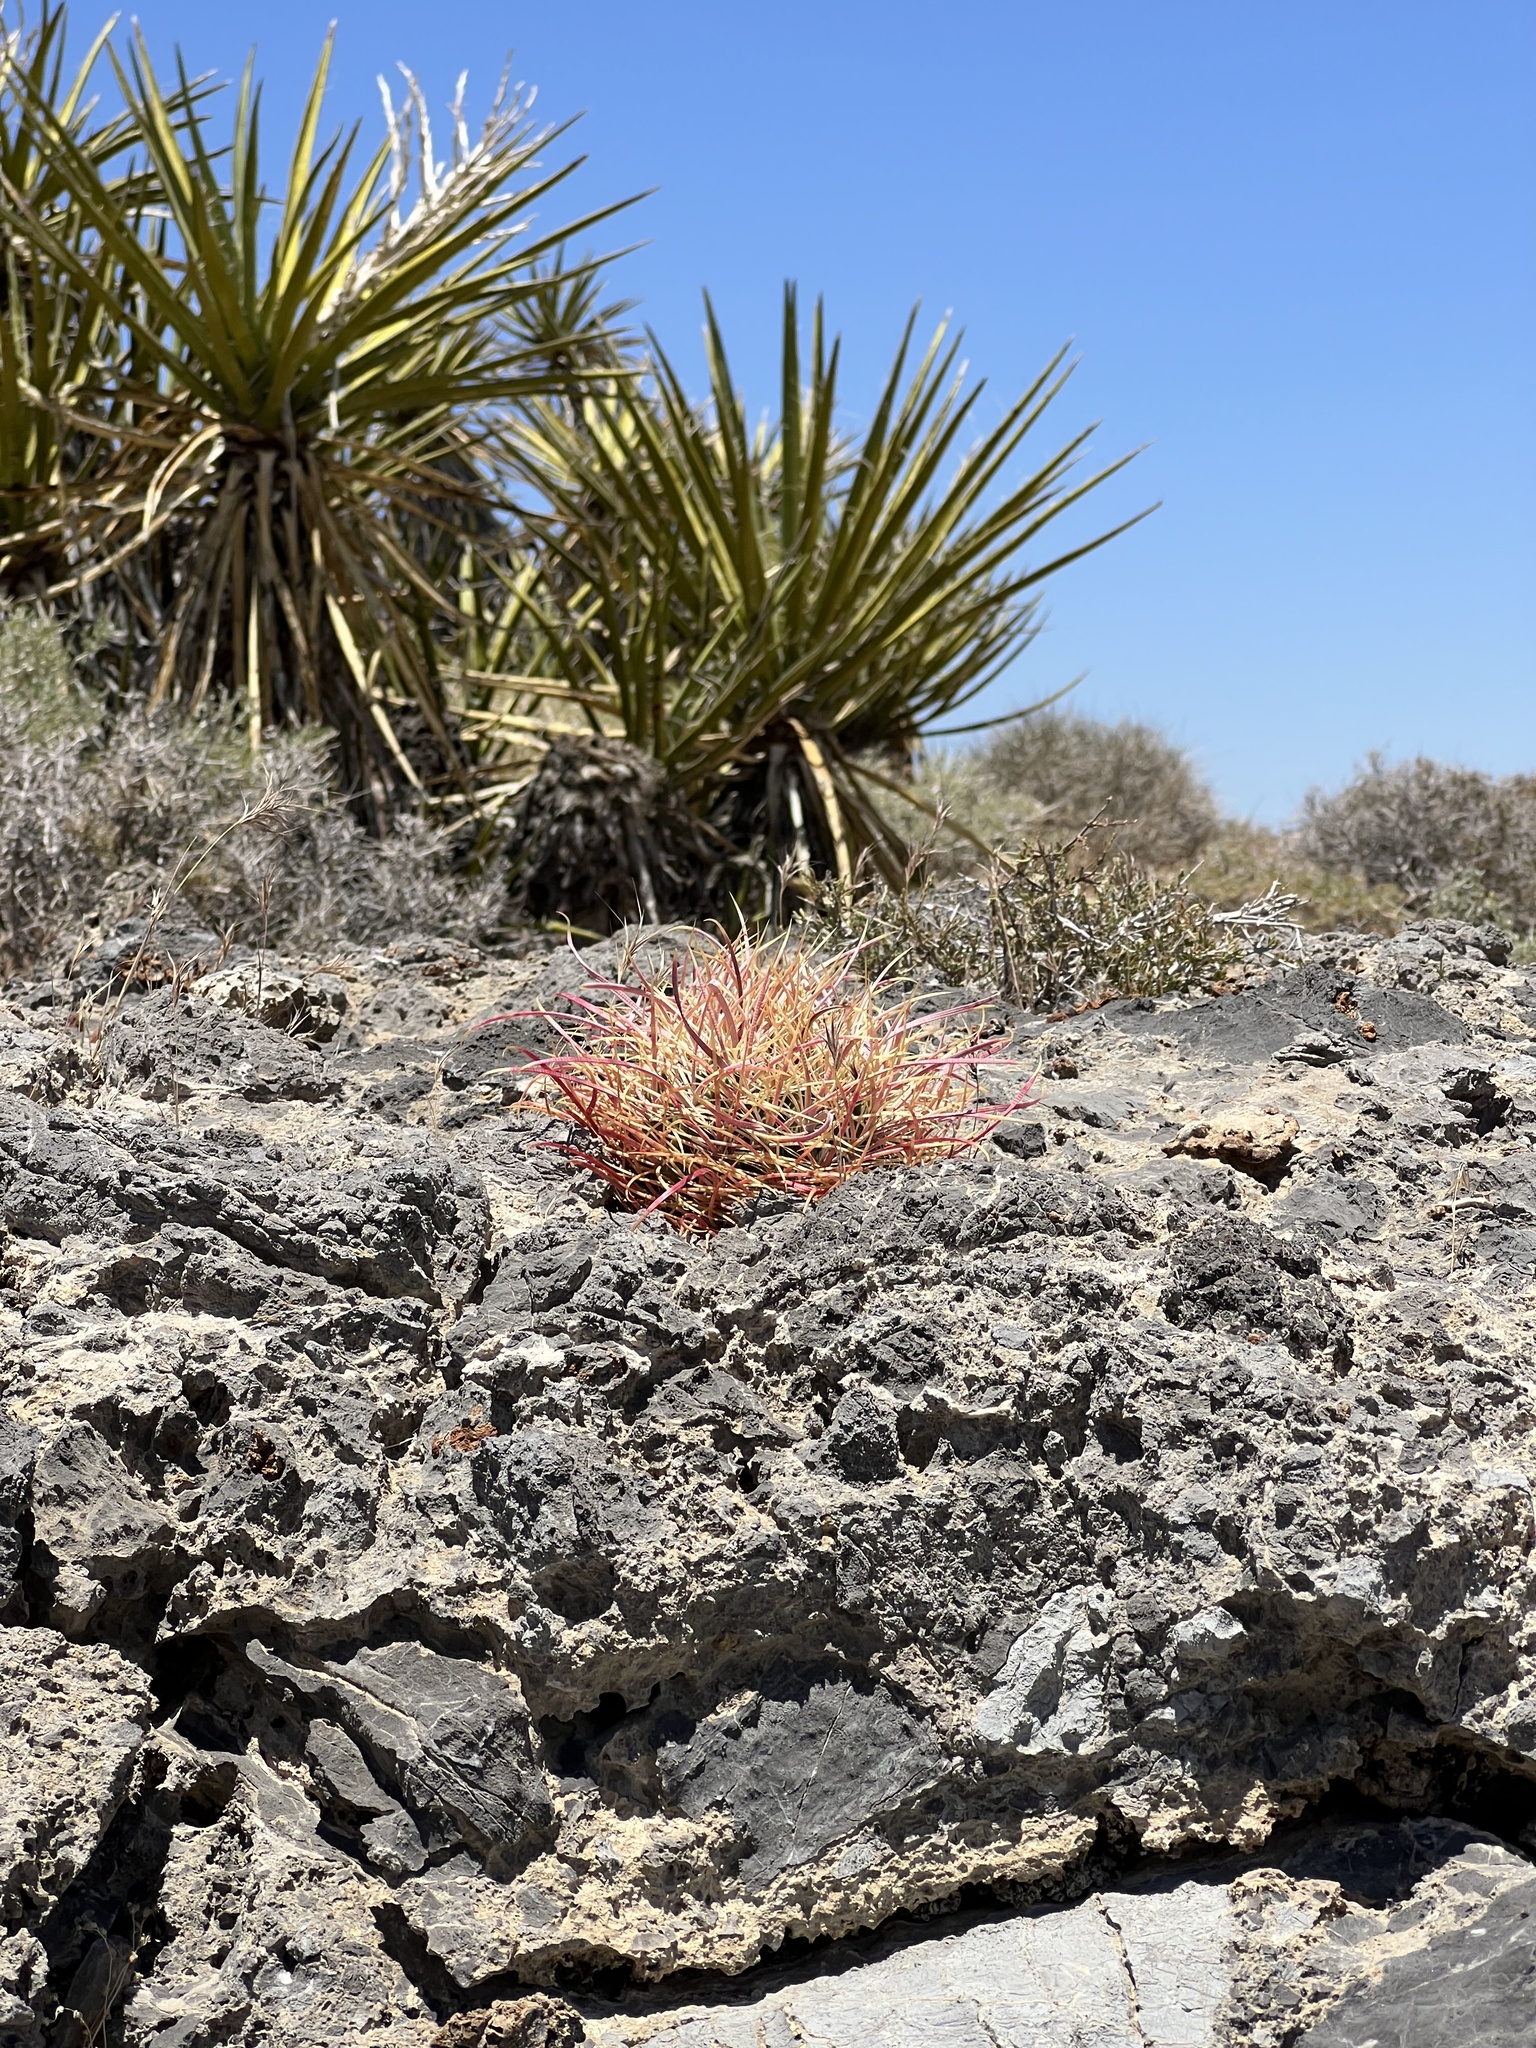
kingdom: Plantae
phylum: Tracheophyta
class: Magnoliopsida
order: Caryophyllales
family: Cactaceae
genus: Ferocactus
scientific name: Ferocactus cylindraceus
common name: California barrel cactus
